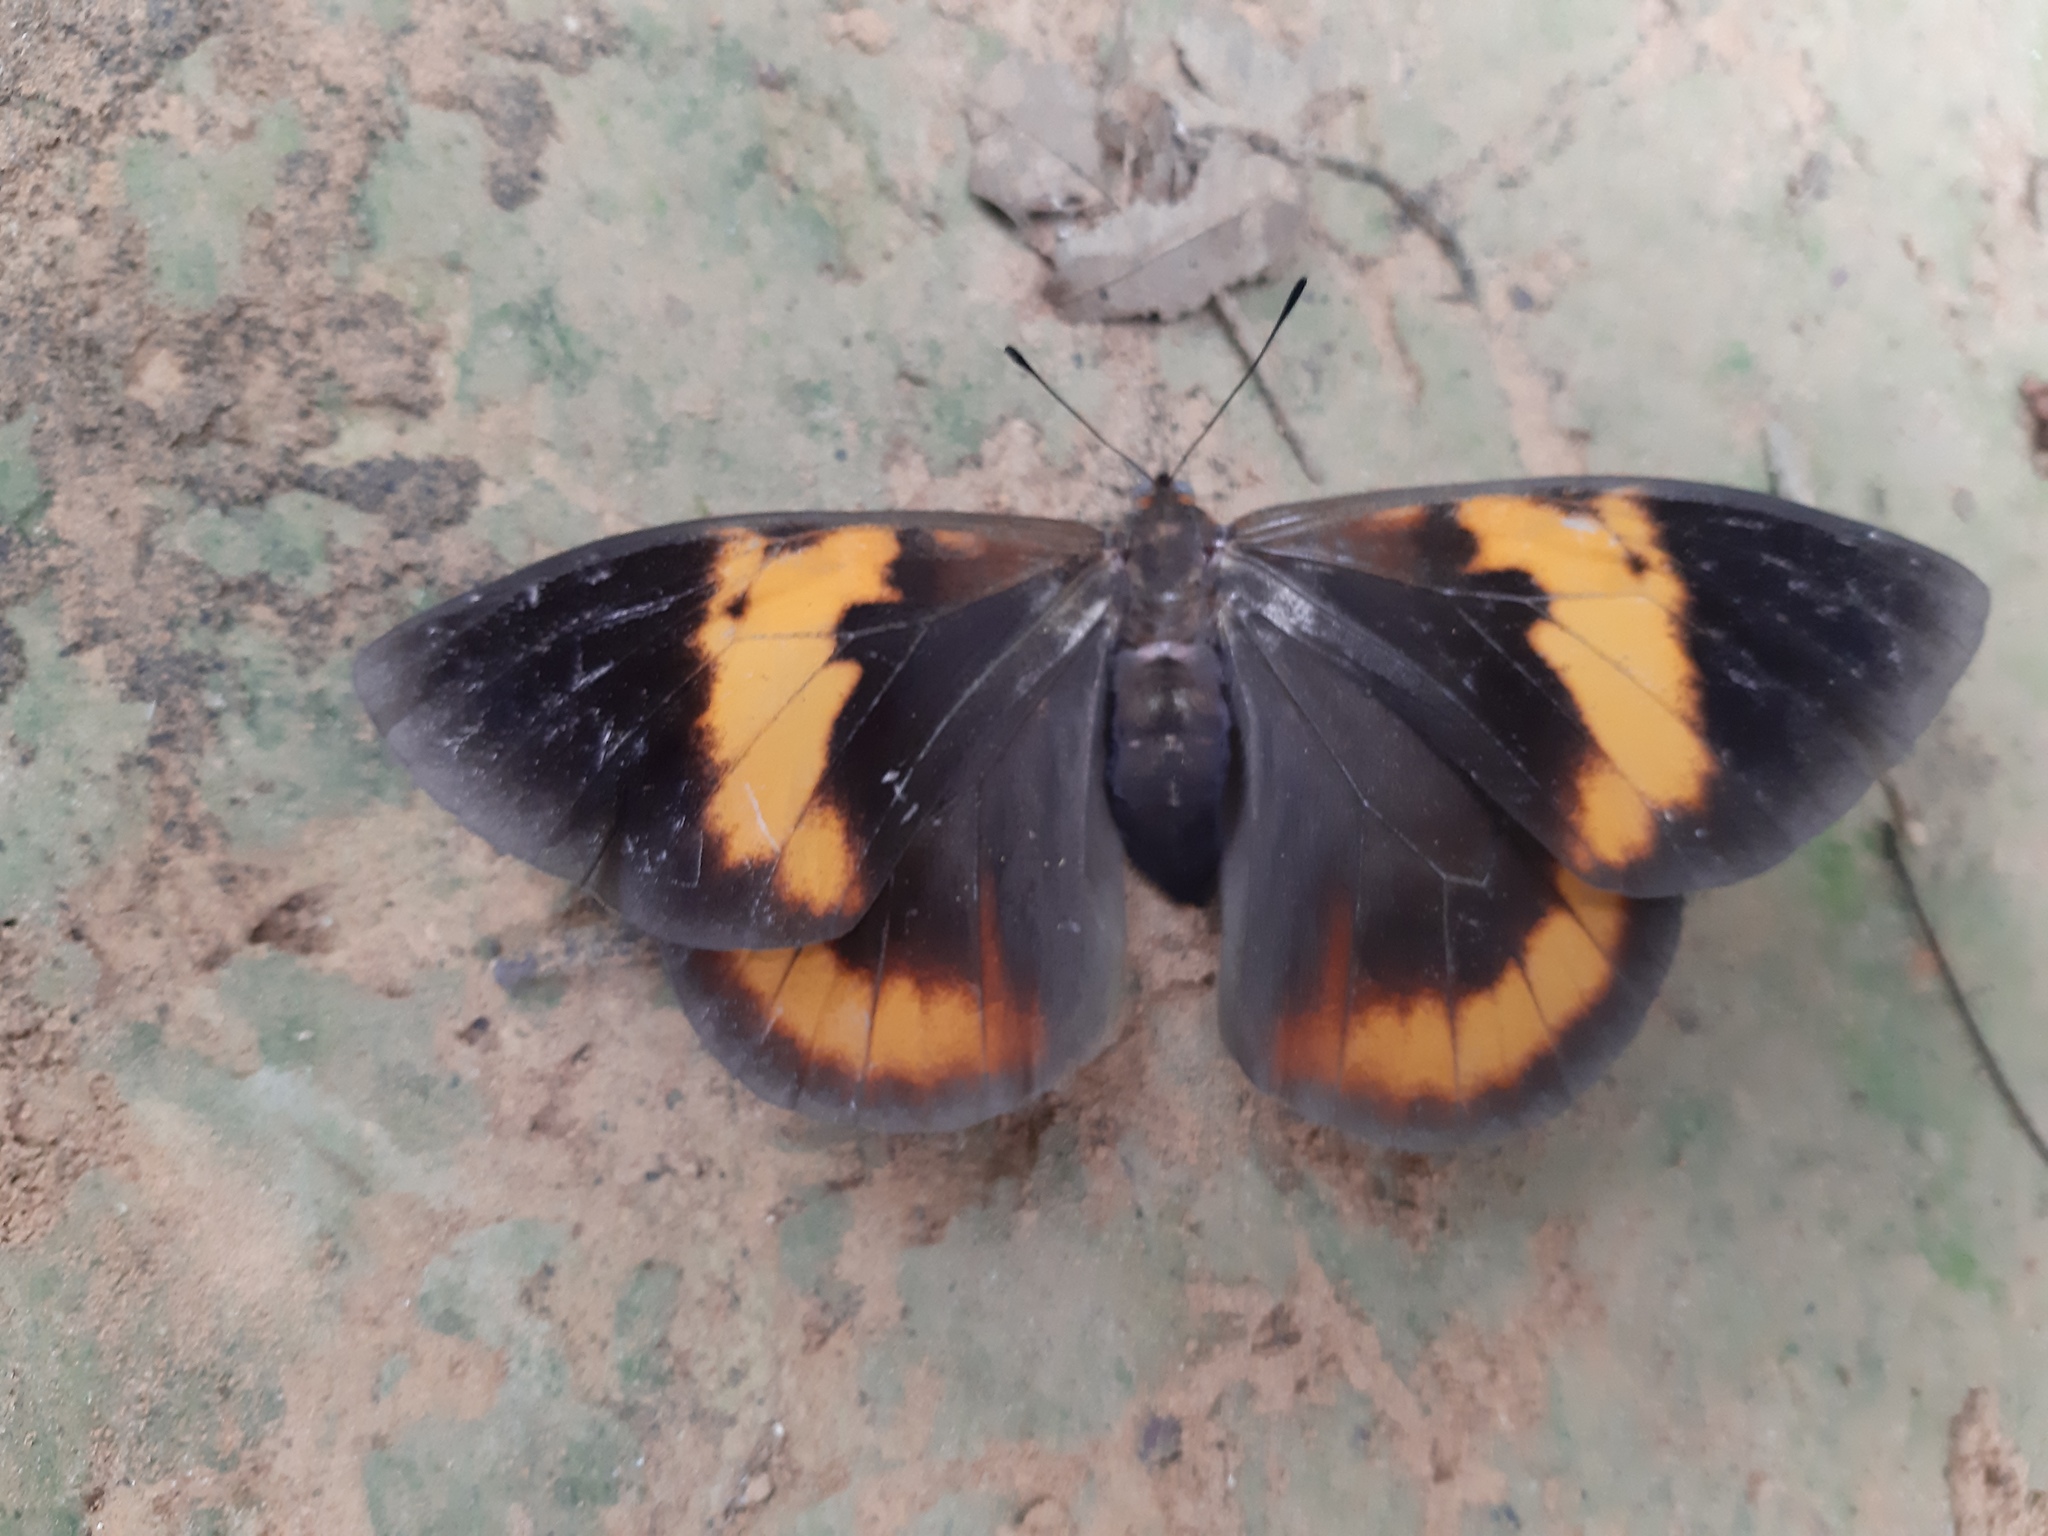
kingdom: Animalia
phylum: Arthropoda
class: Insecta
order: Lepidoptera
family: Nymphalidae
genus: Brassolis
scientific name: Brassolis sophorae
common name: Coconut caterpillar
